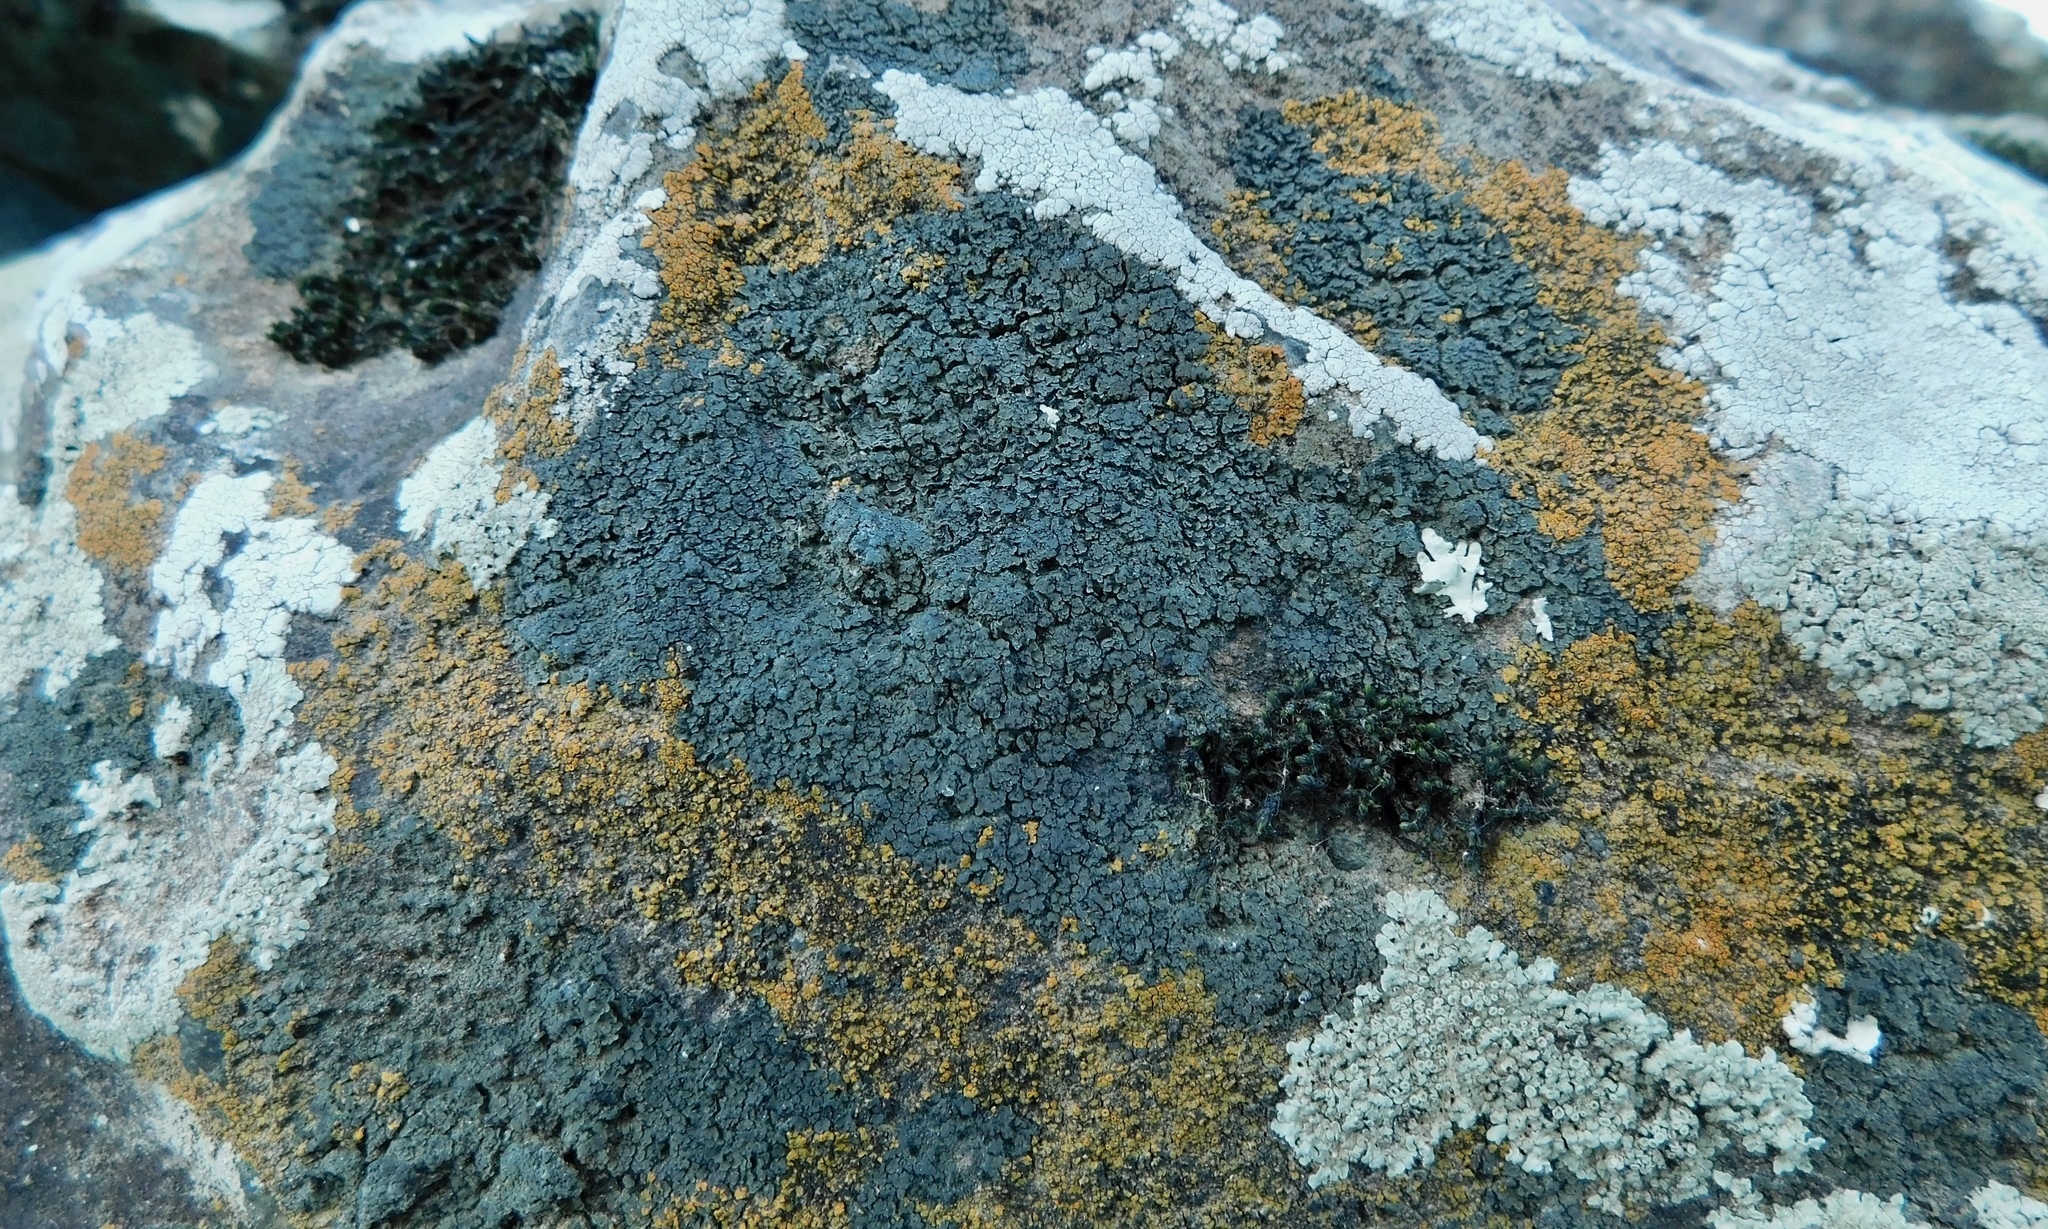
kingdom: Fungi
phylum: Ascomycota
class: Lecanoromycetes
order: Lecanorales
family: Psoraceae
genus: Psorula
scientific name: Psorula rufonigra
